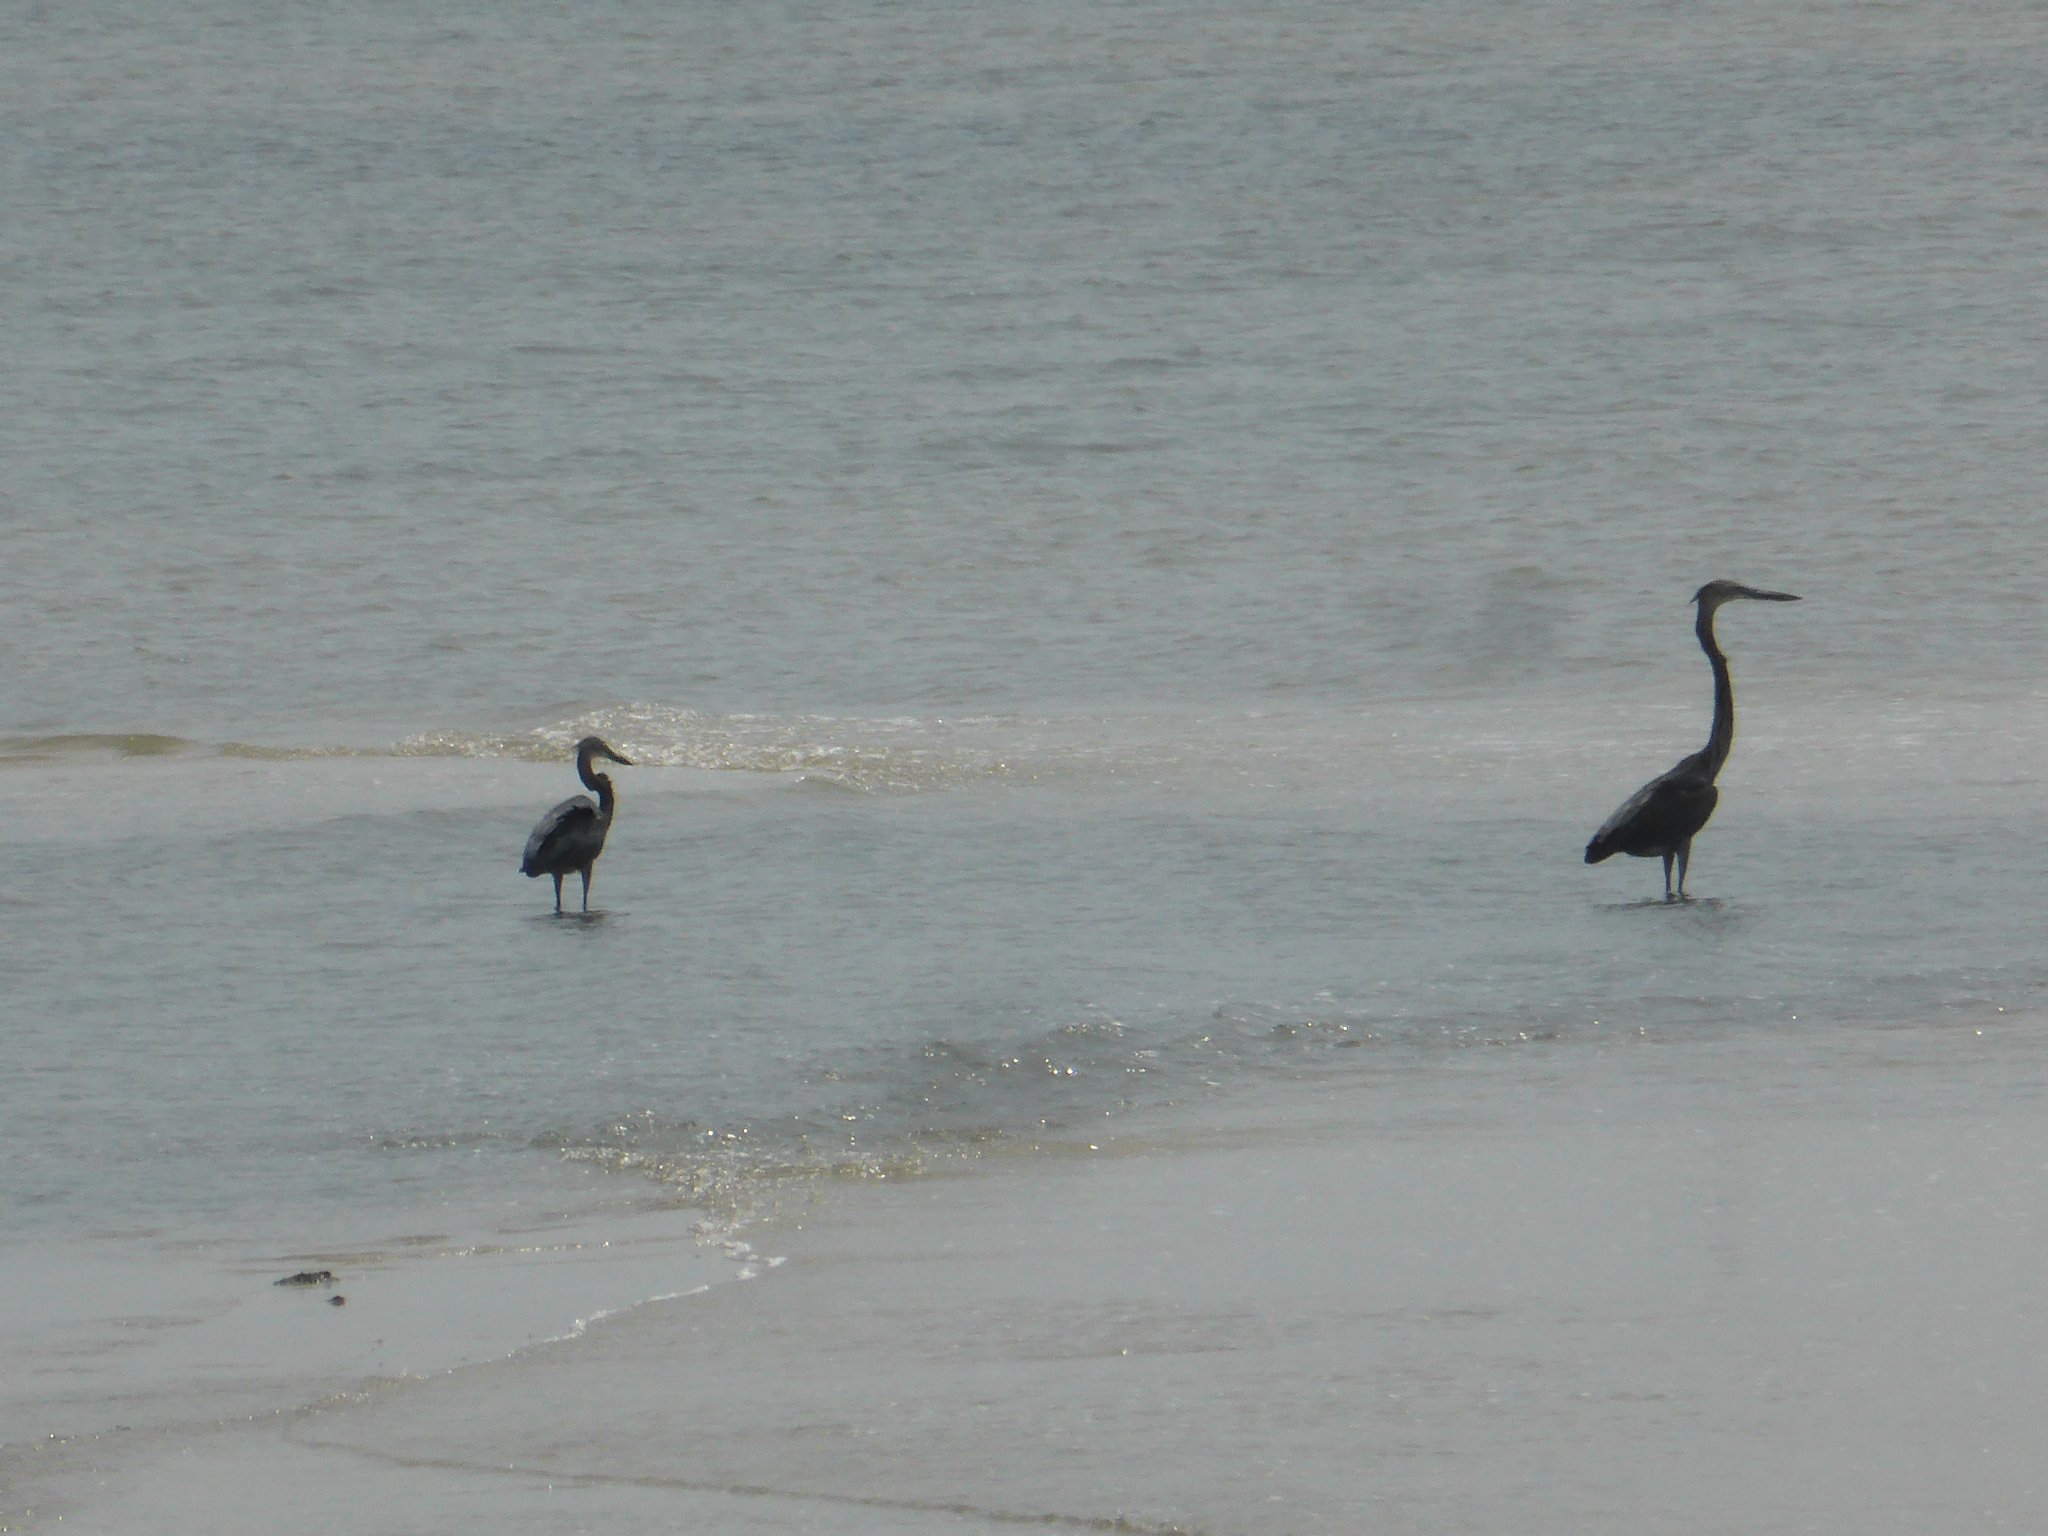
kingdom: Animalia
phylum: Chordata
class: Aves
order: Pelecaniformes
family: Ardeidae
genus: Ardea
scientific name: Ardea sumatrana
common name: Great-billed heron
